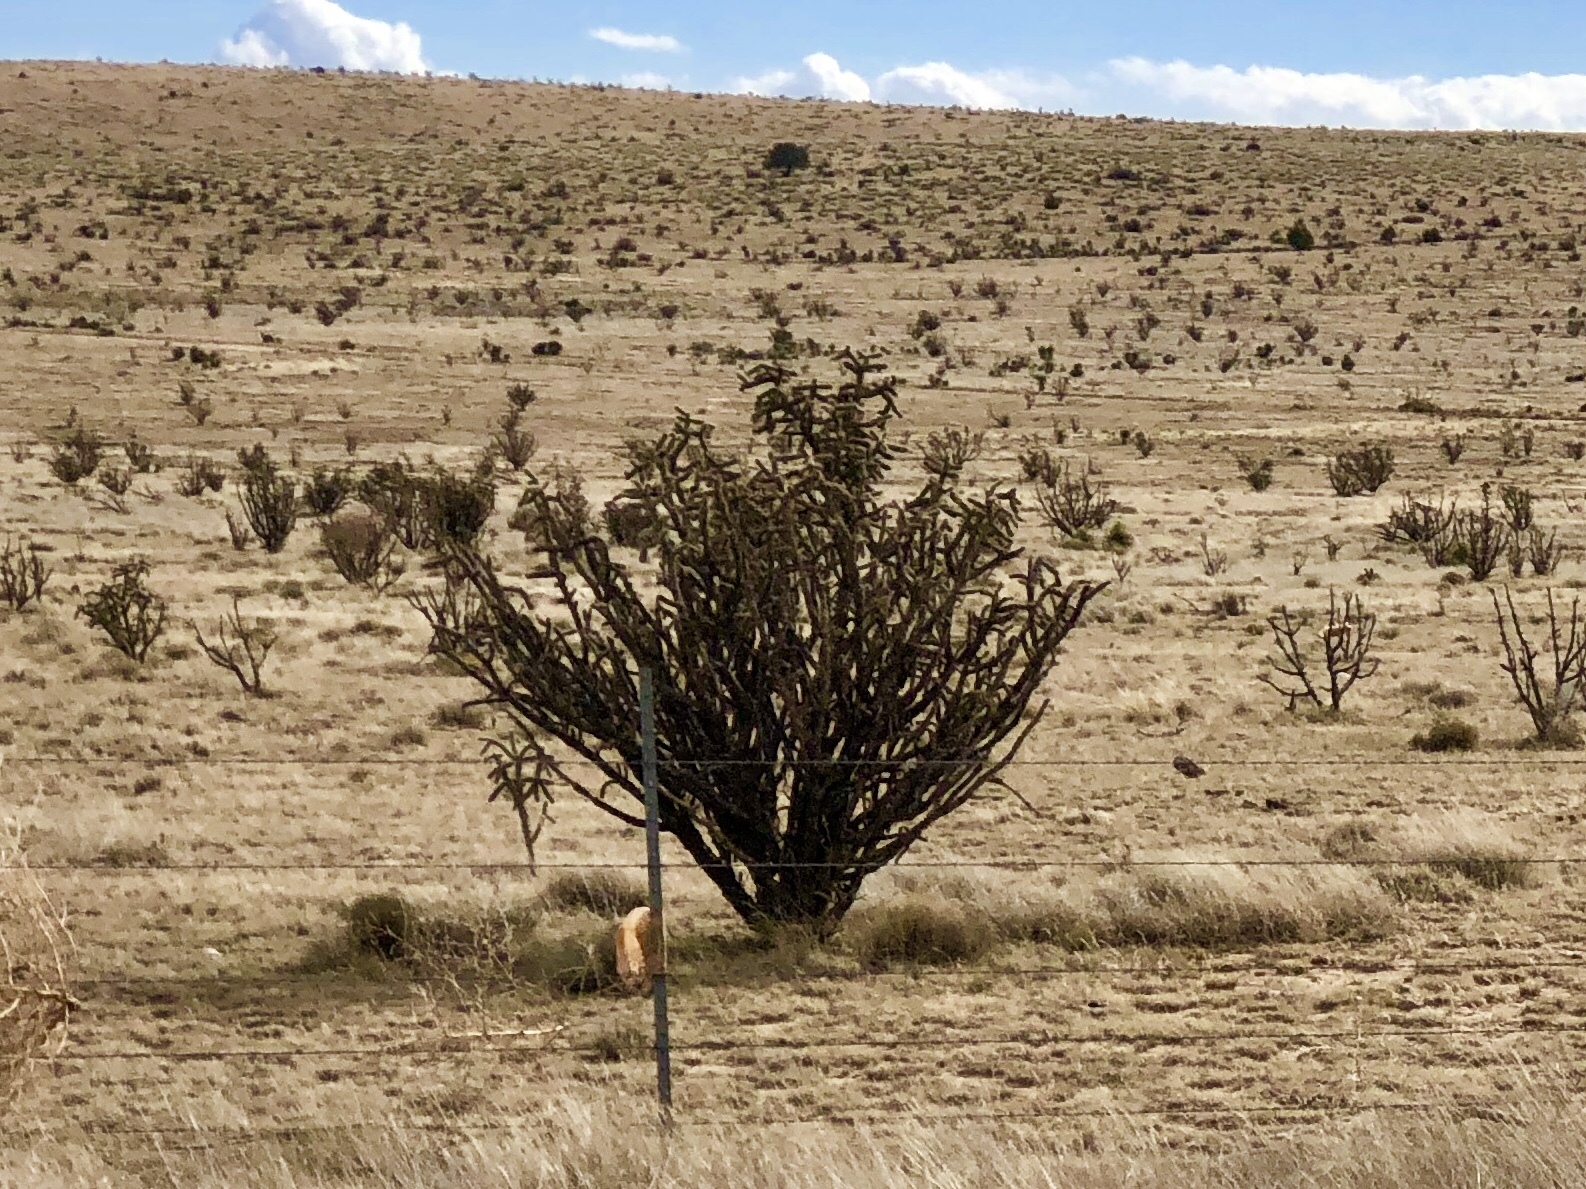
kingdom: Plantae
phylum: Tracheophyta
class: Magnoliopsida
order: Caryophyllales
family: Cactaceae
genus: Cylindropuntia
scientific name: Cylindropuntia imbricata
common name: Candelabrum cactus
